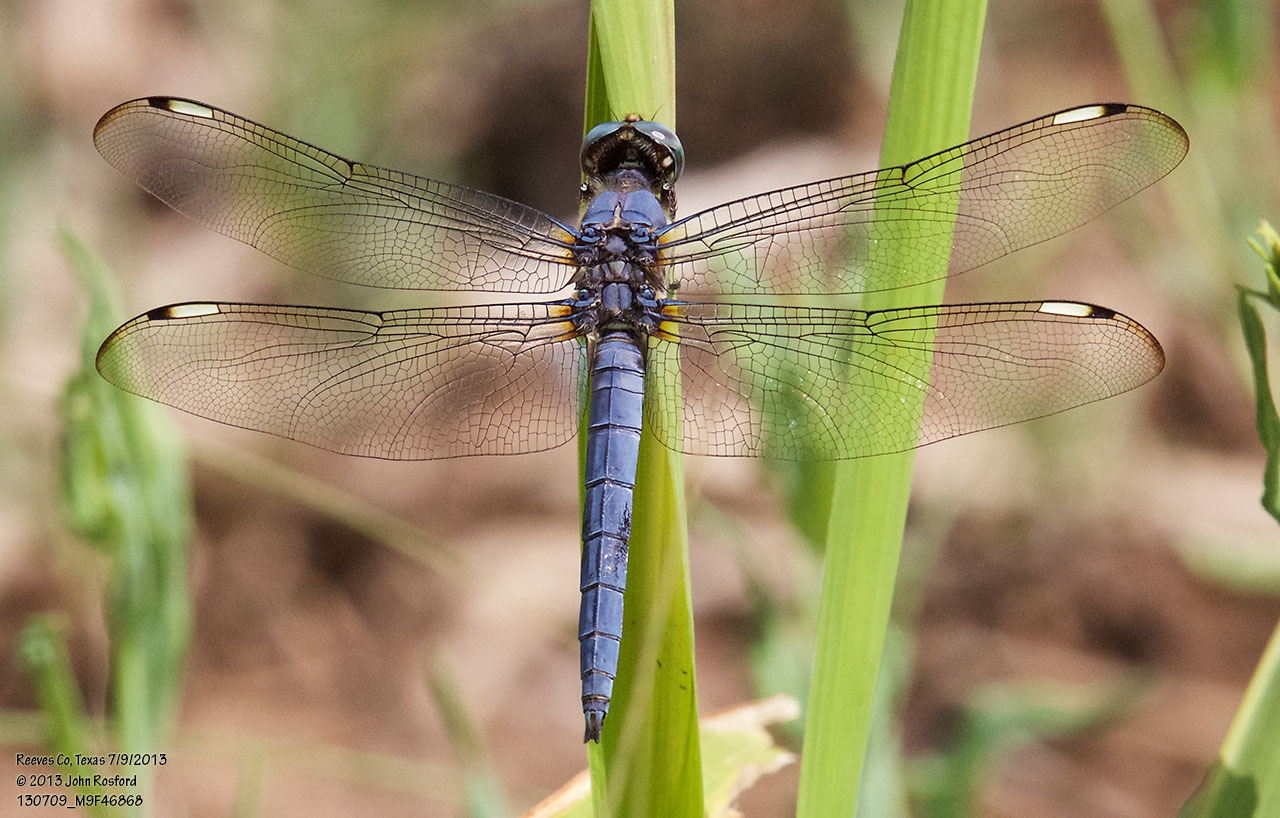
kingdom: Animalia
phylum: Arthropoda
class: Insecta
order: Odonata
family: Libellulidae
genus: Libellula
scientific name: Libellula comanche
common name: Comanche skimmer
